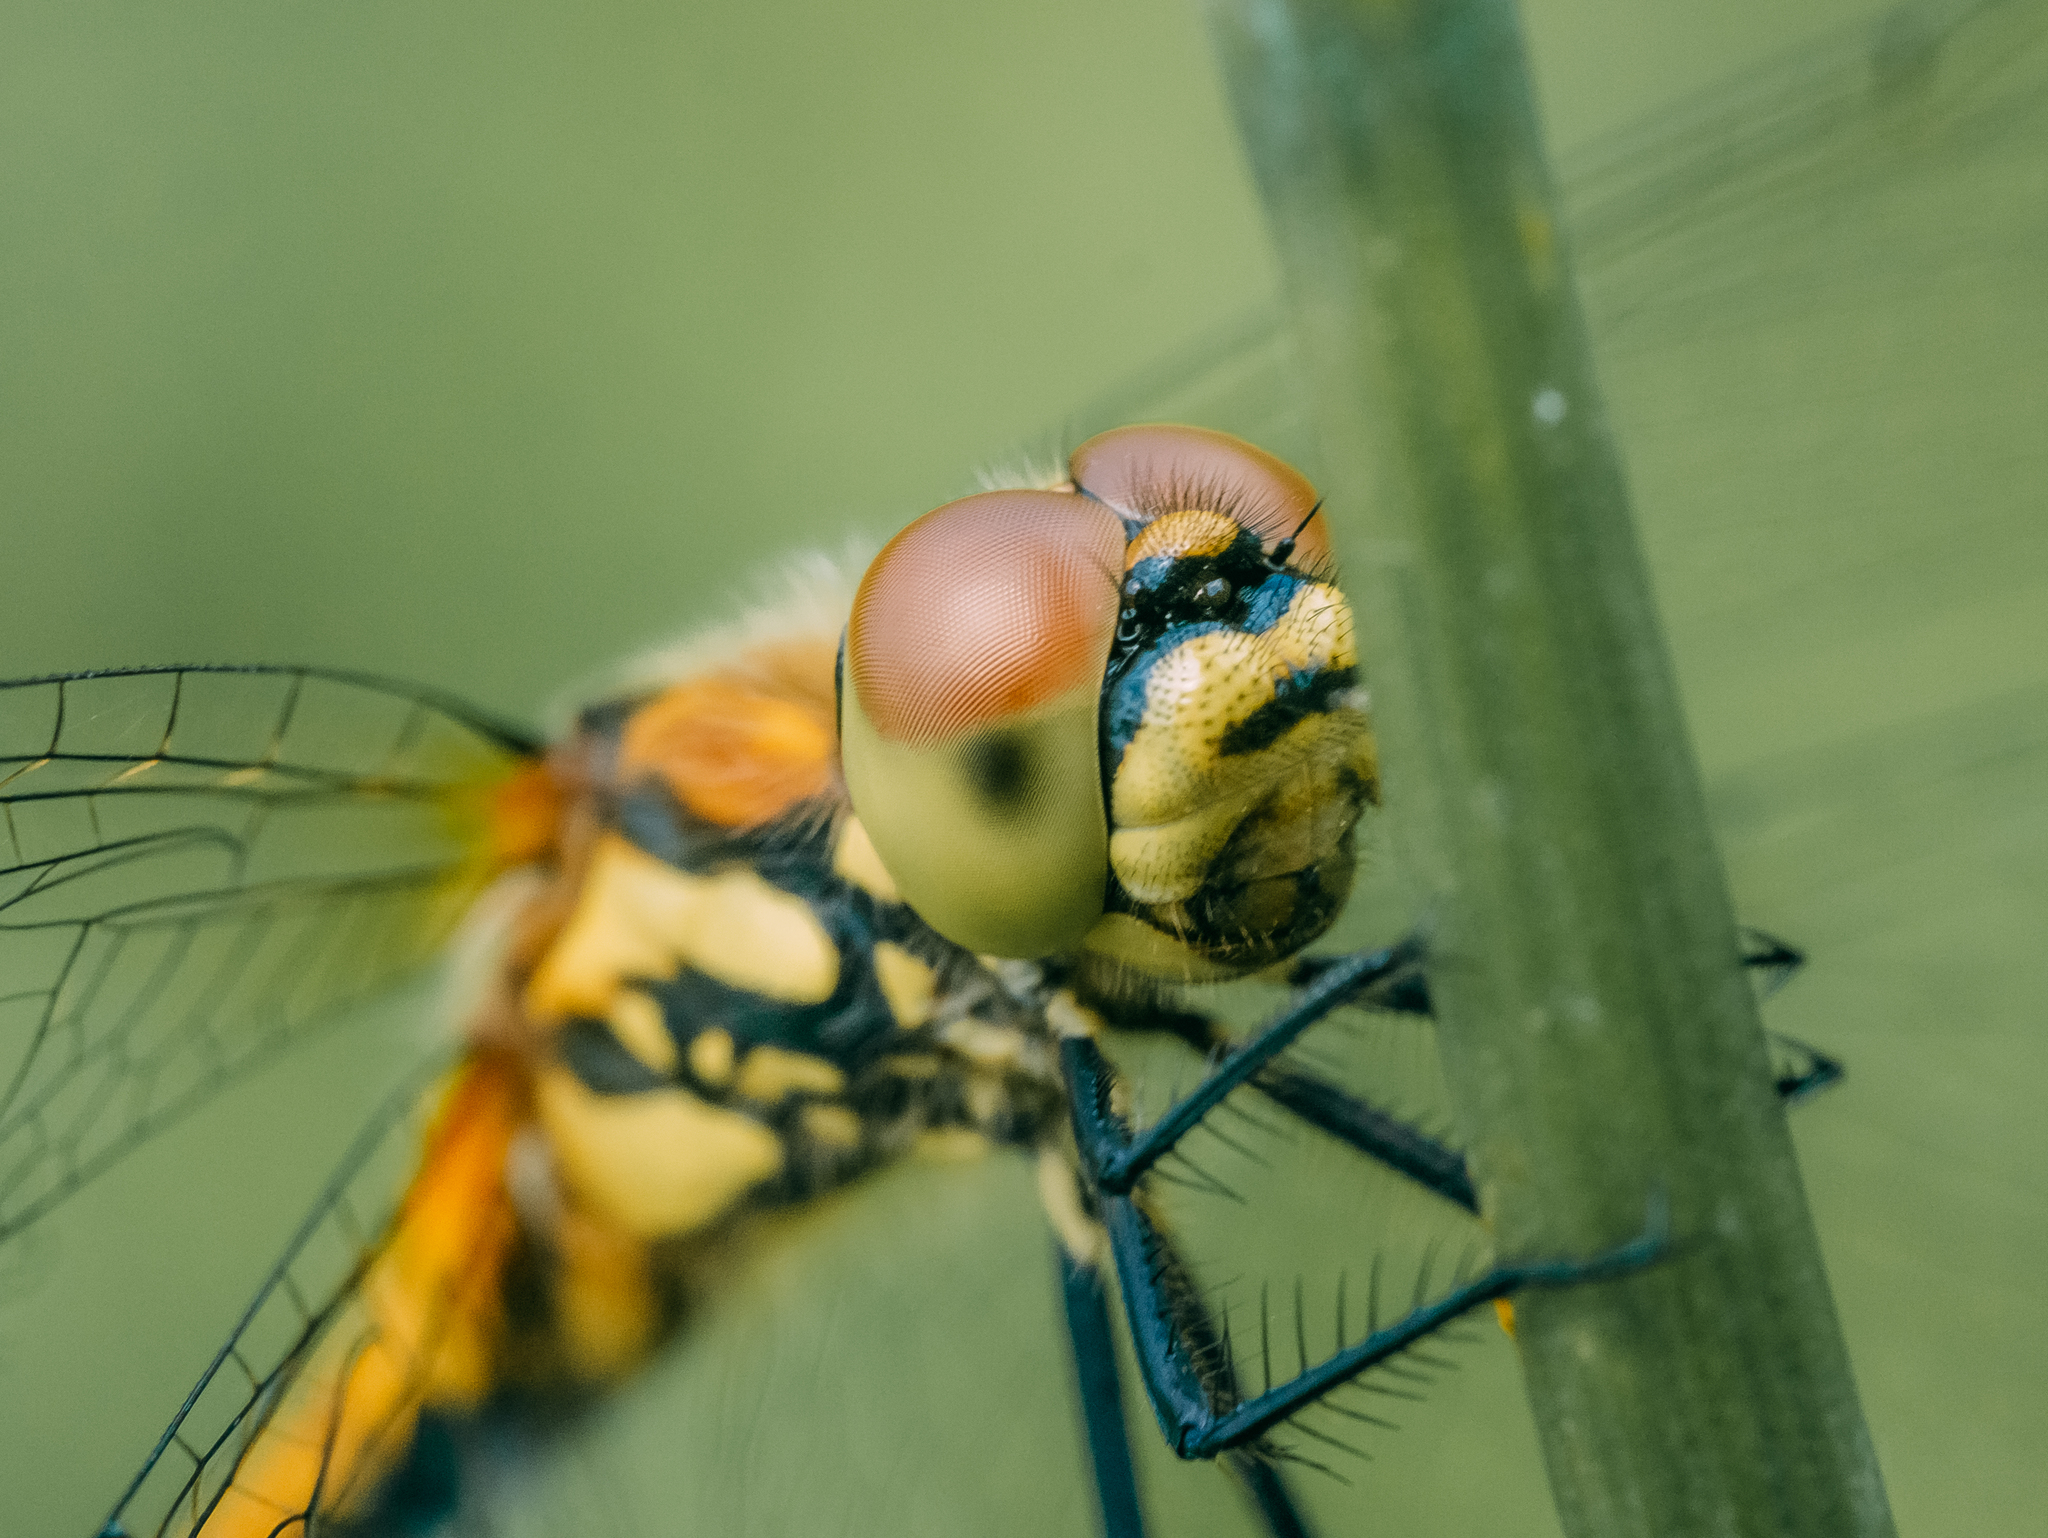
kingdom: Animalia
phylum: Arthropoda
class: Insecta
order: Odonata
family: Libellulidae
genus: Sympetrum
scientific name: Sympetrum danae
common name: Black darter
